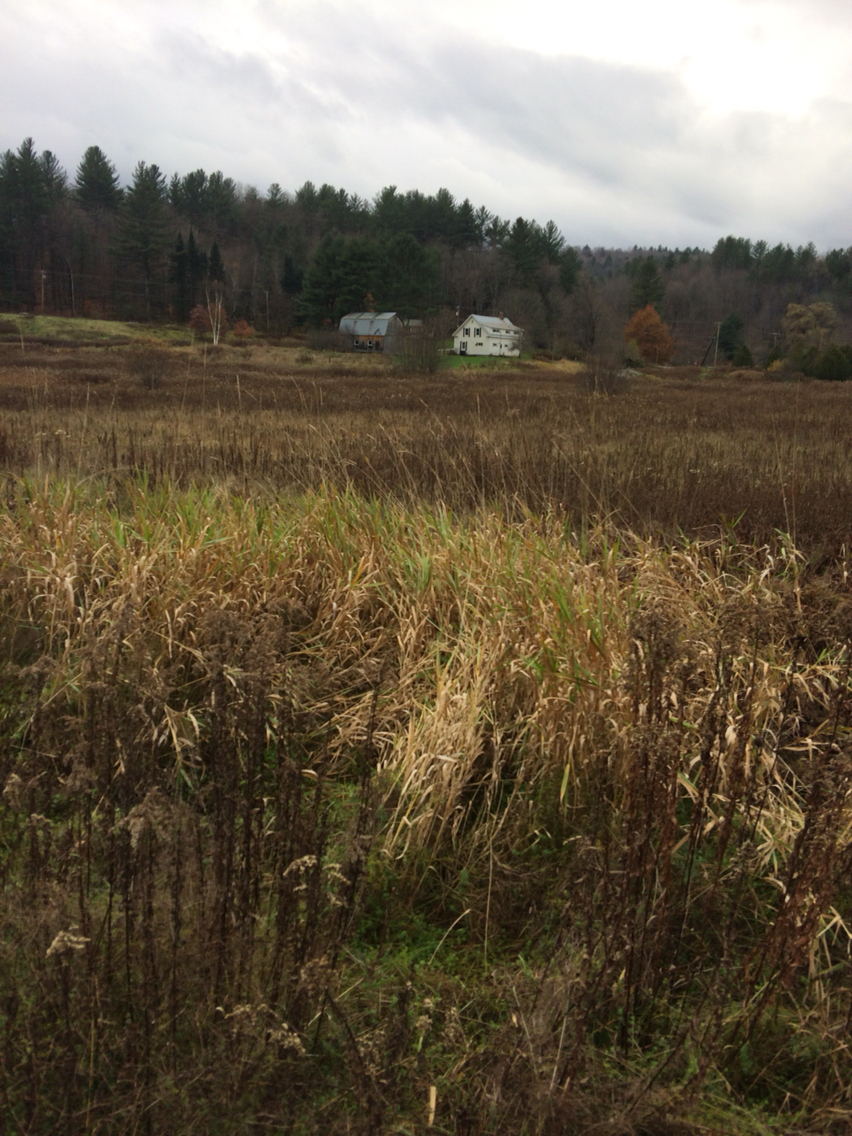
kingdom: Plantae
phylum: Tracheophyta
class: Liliopsida
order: Poales
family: Poaceae
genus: Phalaris
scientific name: Phalaris arundinacea
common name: Reed canary-grass
